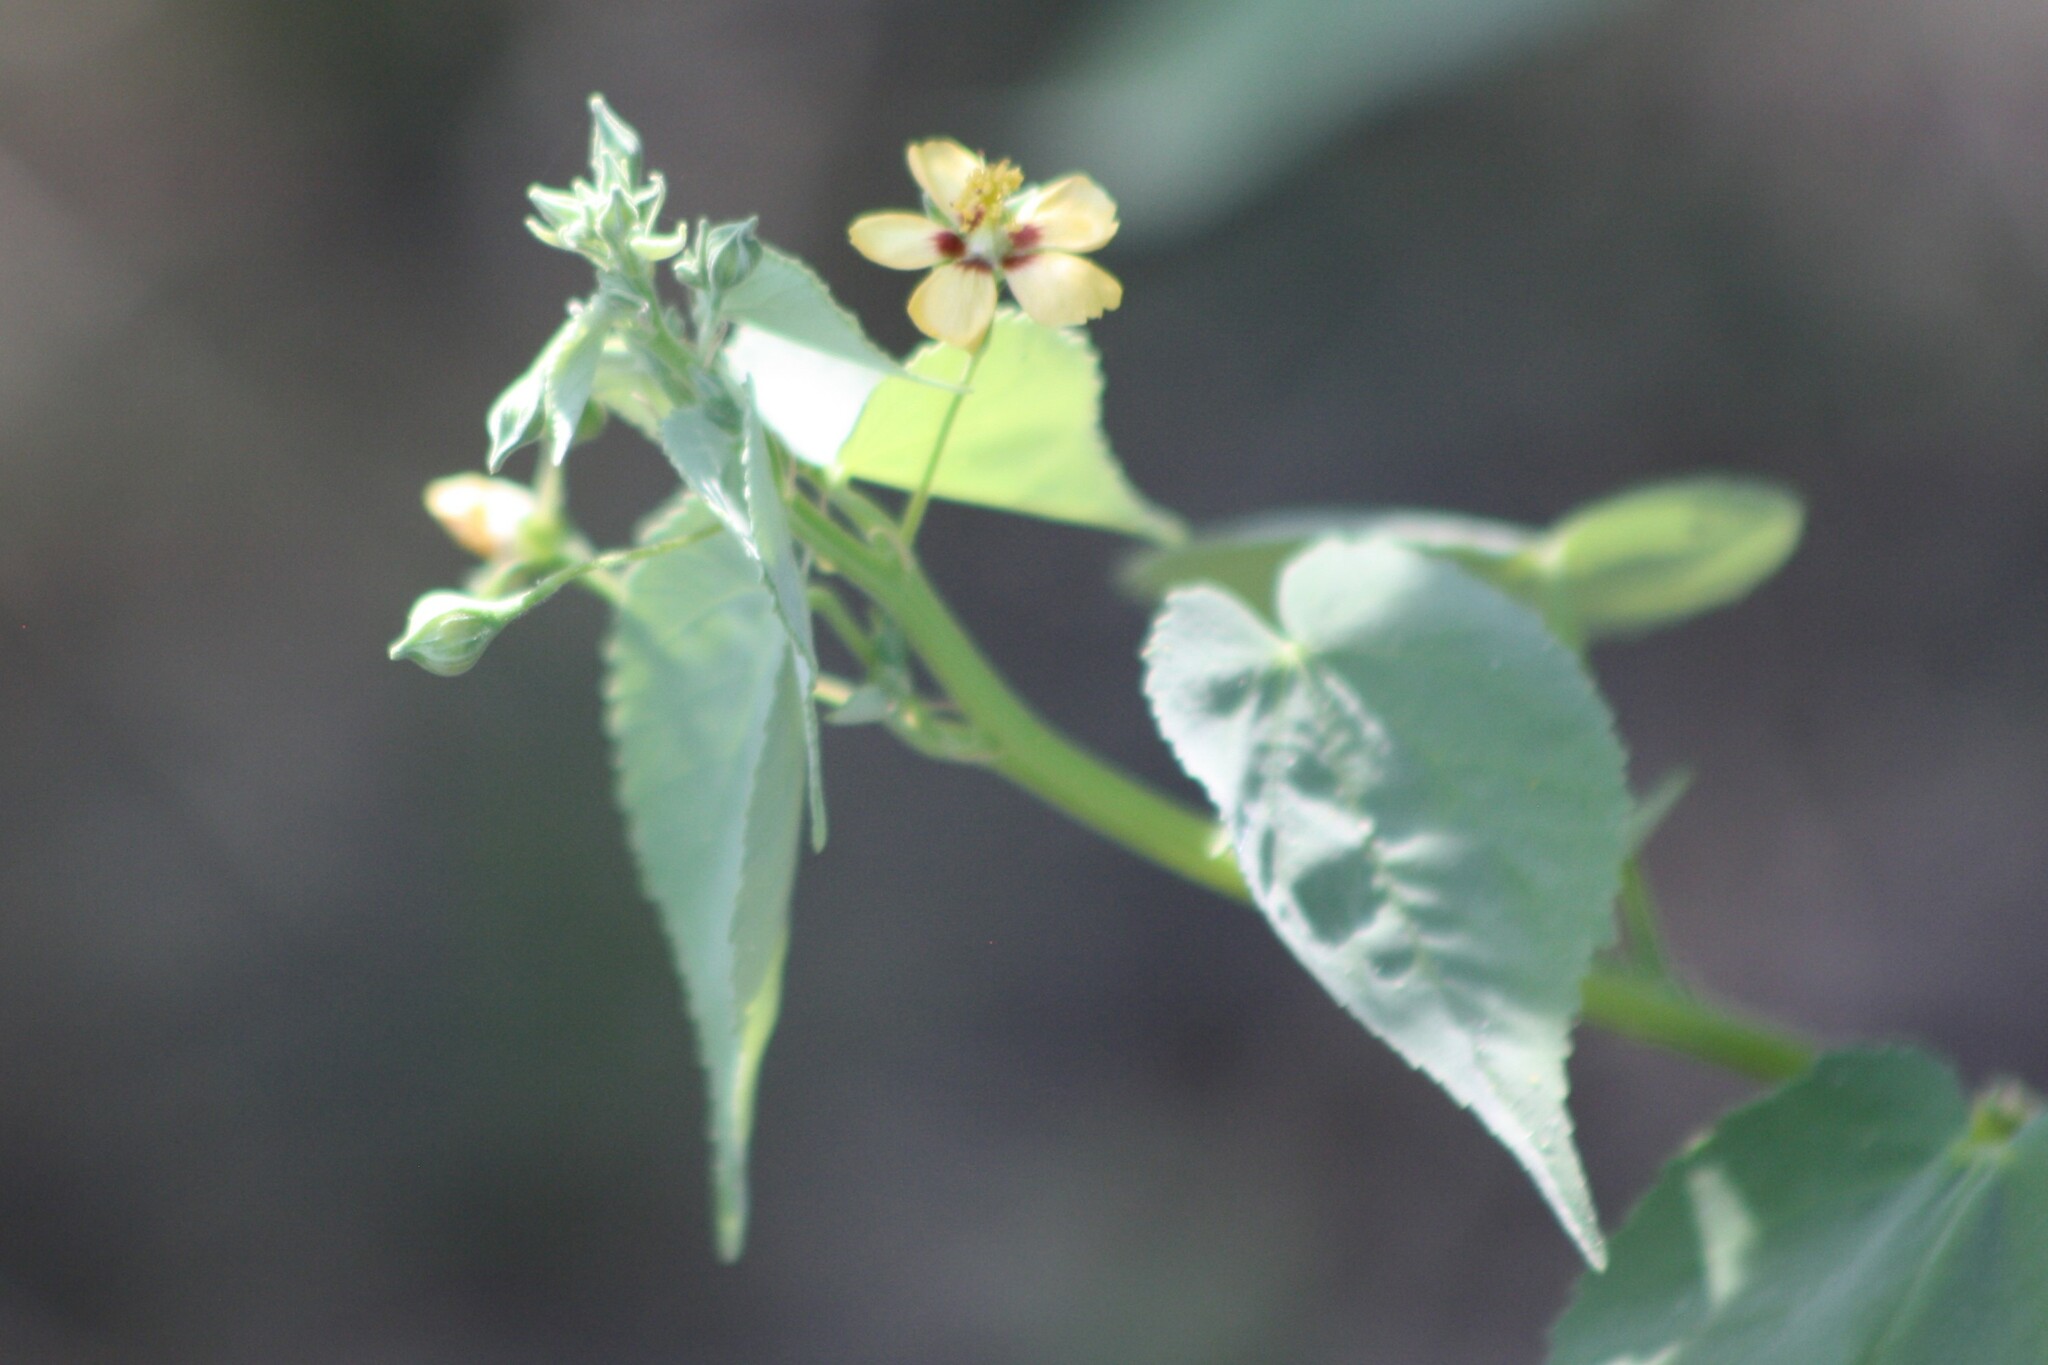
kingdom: Plantae
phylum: Tracheophyta
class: Magnoliopsida
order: Malvales
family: Malvaceae
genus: Abutilon
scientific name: Abutilon trisulcatum
